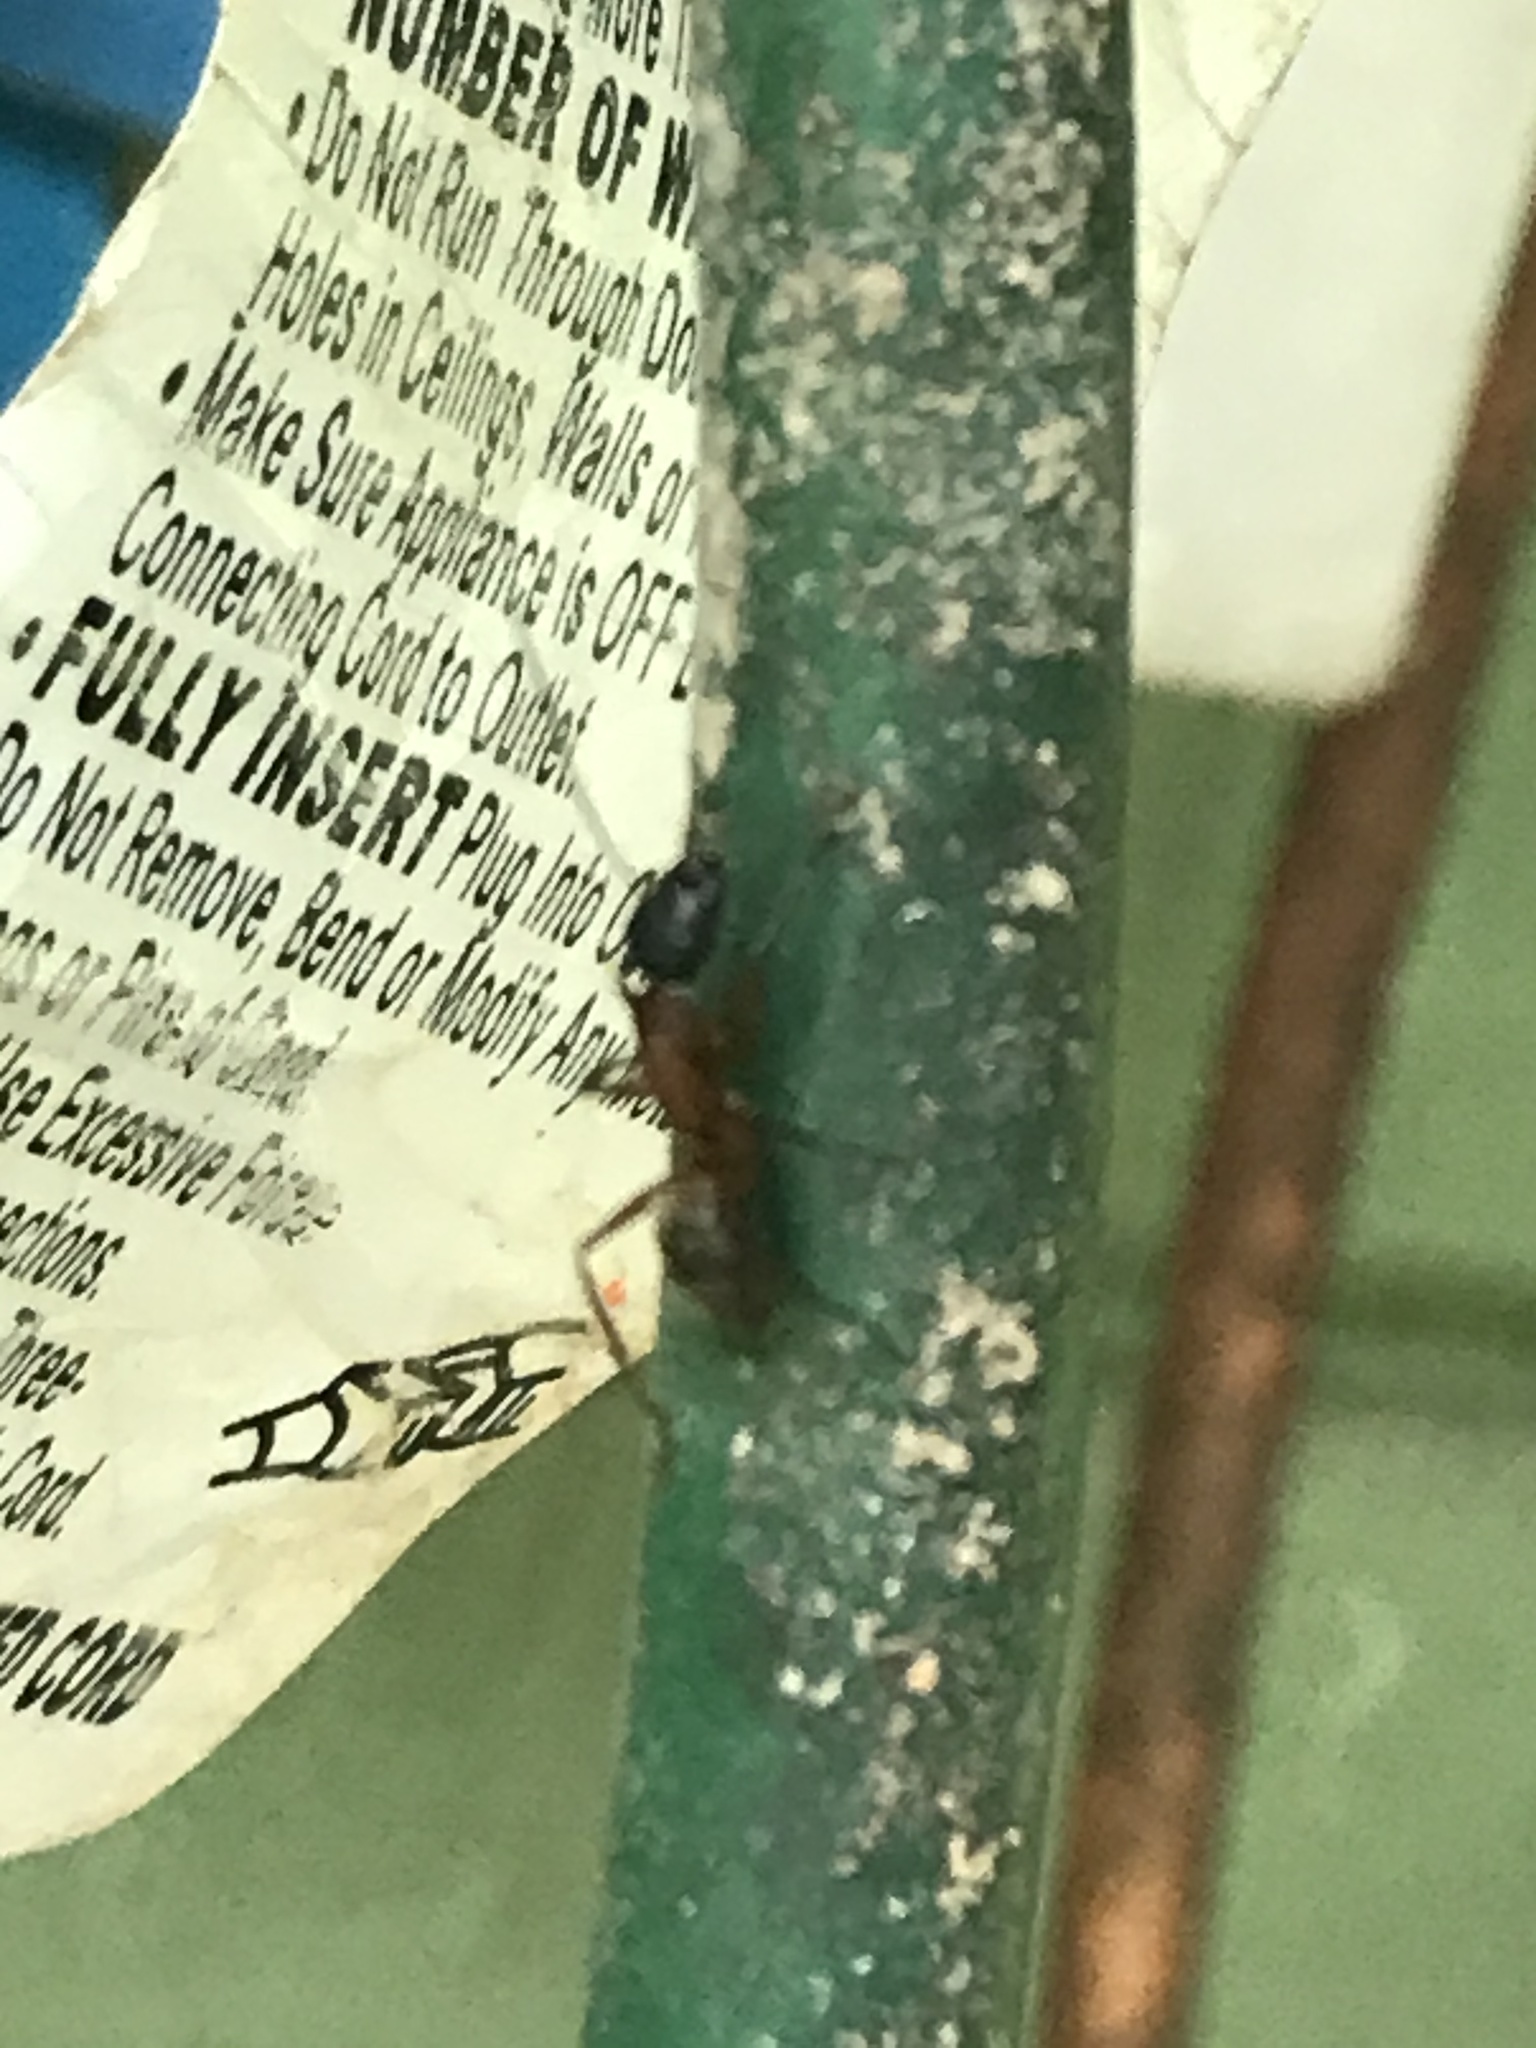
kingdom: Animalia
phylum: Arthropoda
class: Insecta
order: Hymenoptera
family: Formicidae
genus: Camponotus
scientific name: Camponotus chromaiodes
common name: Red carpenter ant
